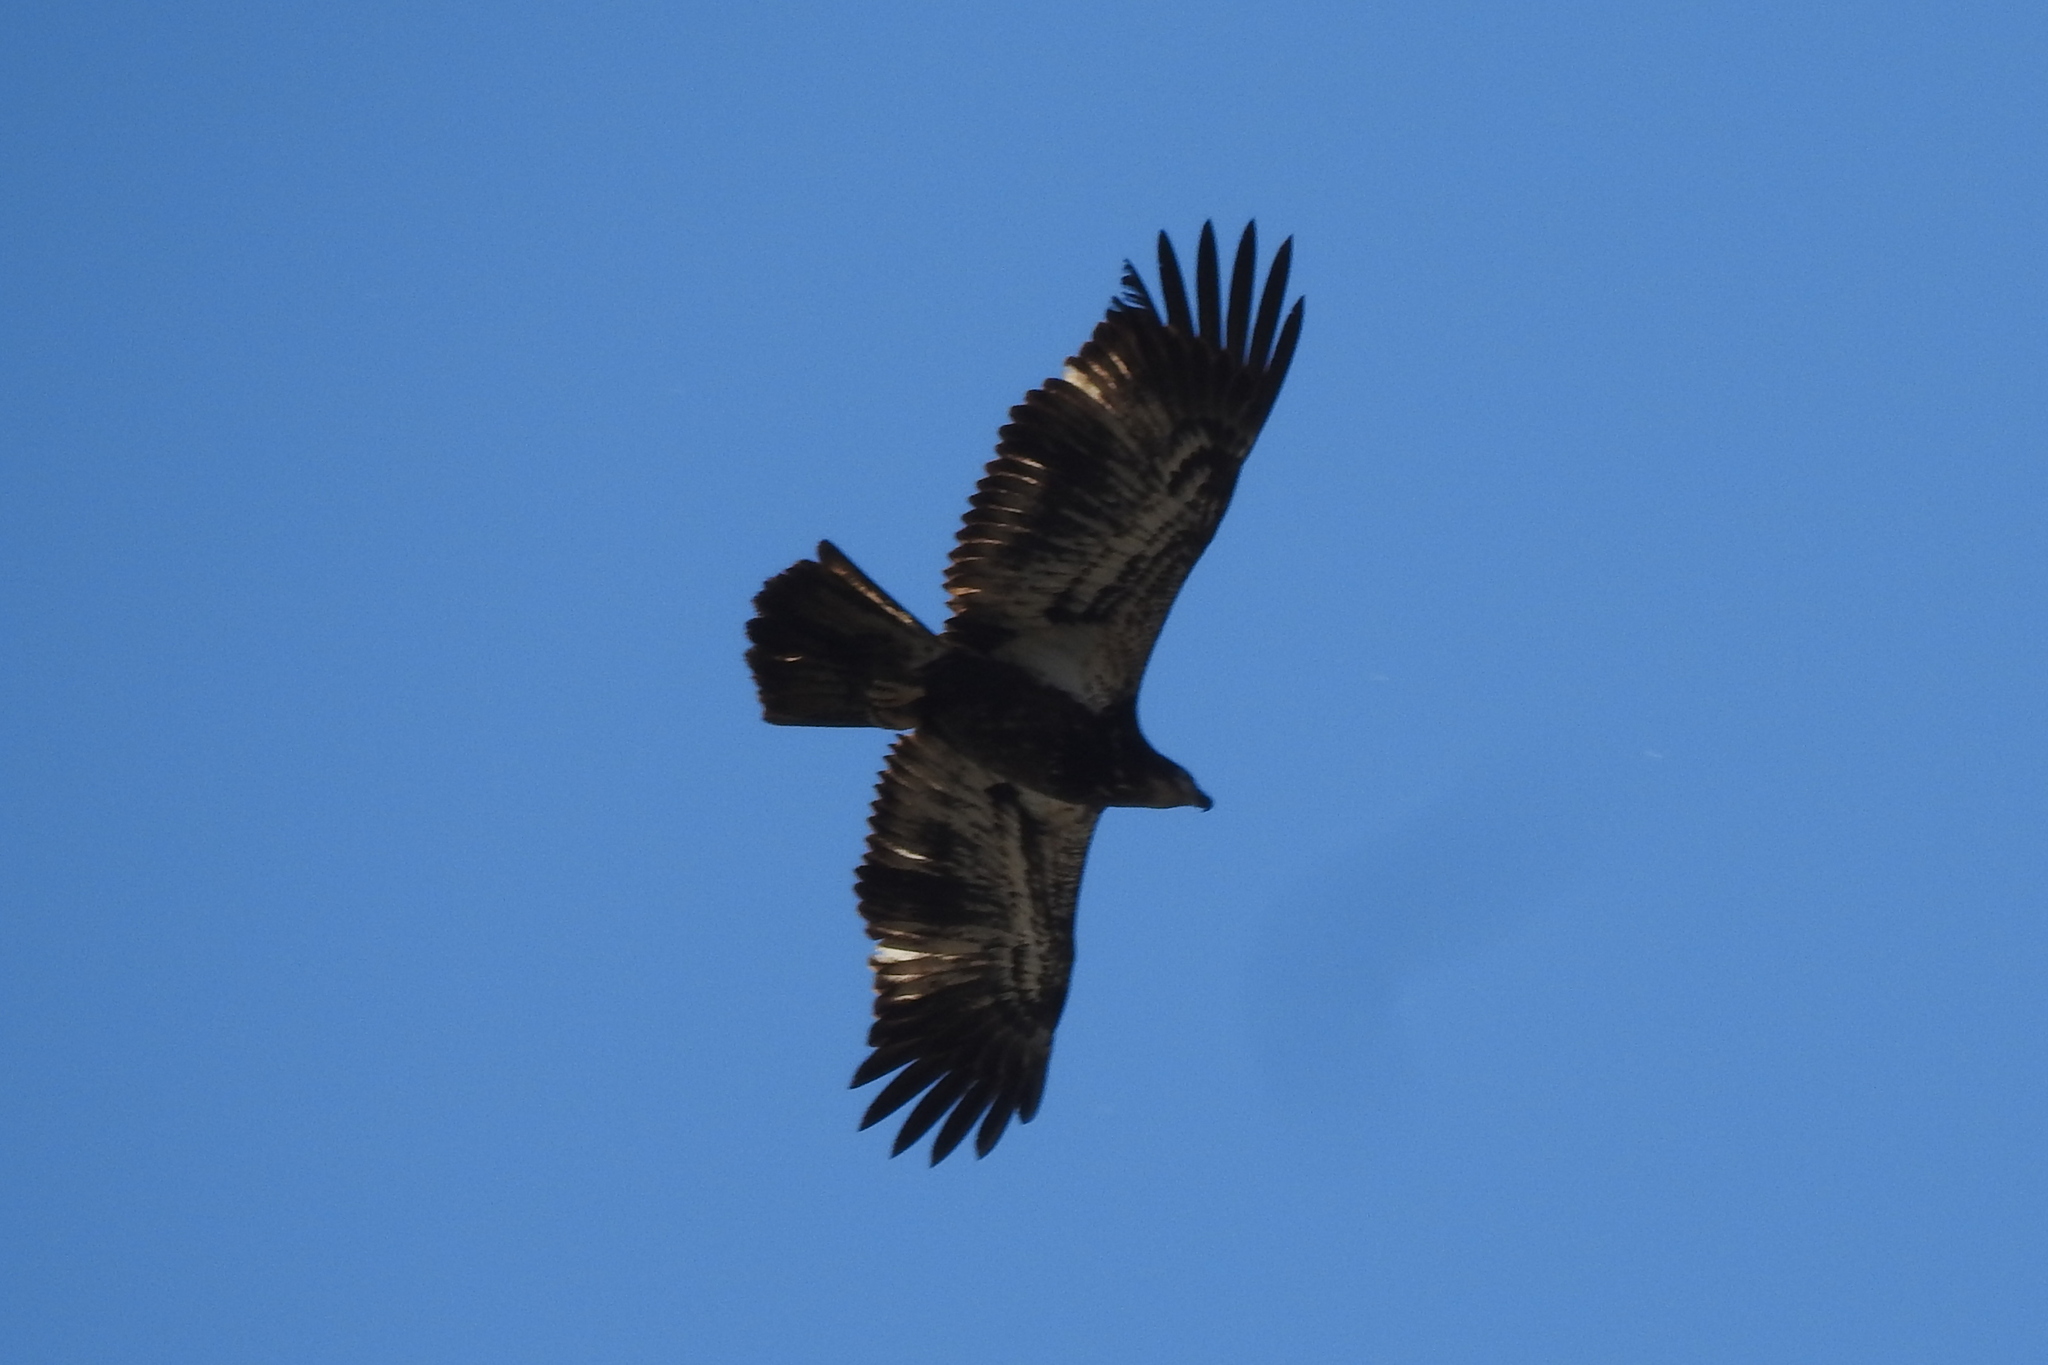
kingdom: Animalia
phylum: Chordata
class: Aves
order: Accipitriformes
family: Accipitridae
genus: Haliaeetus
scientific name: Haliaeetus leucocephalus
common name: Bald eagle
